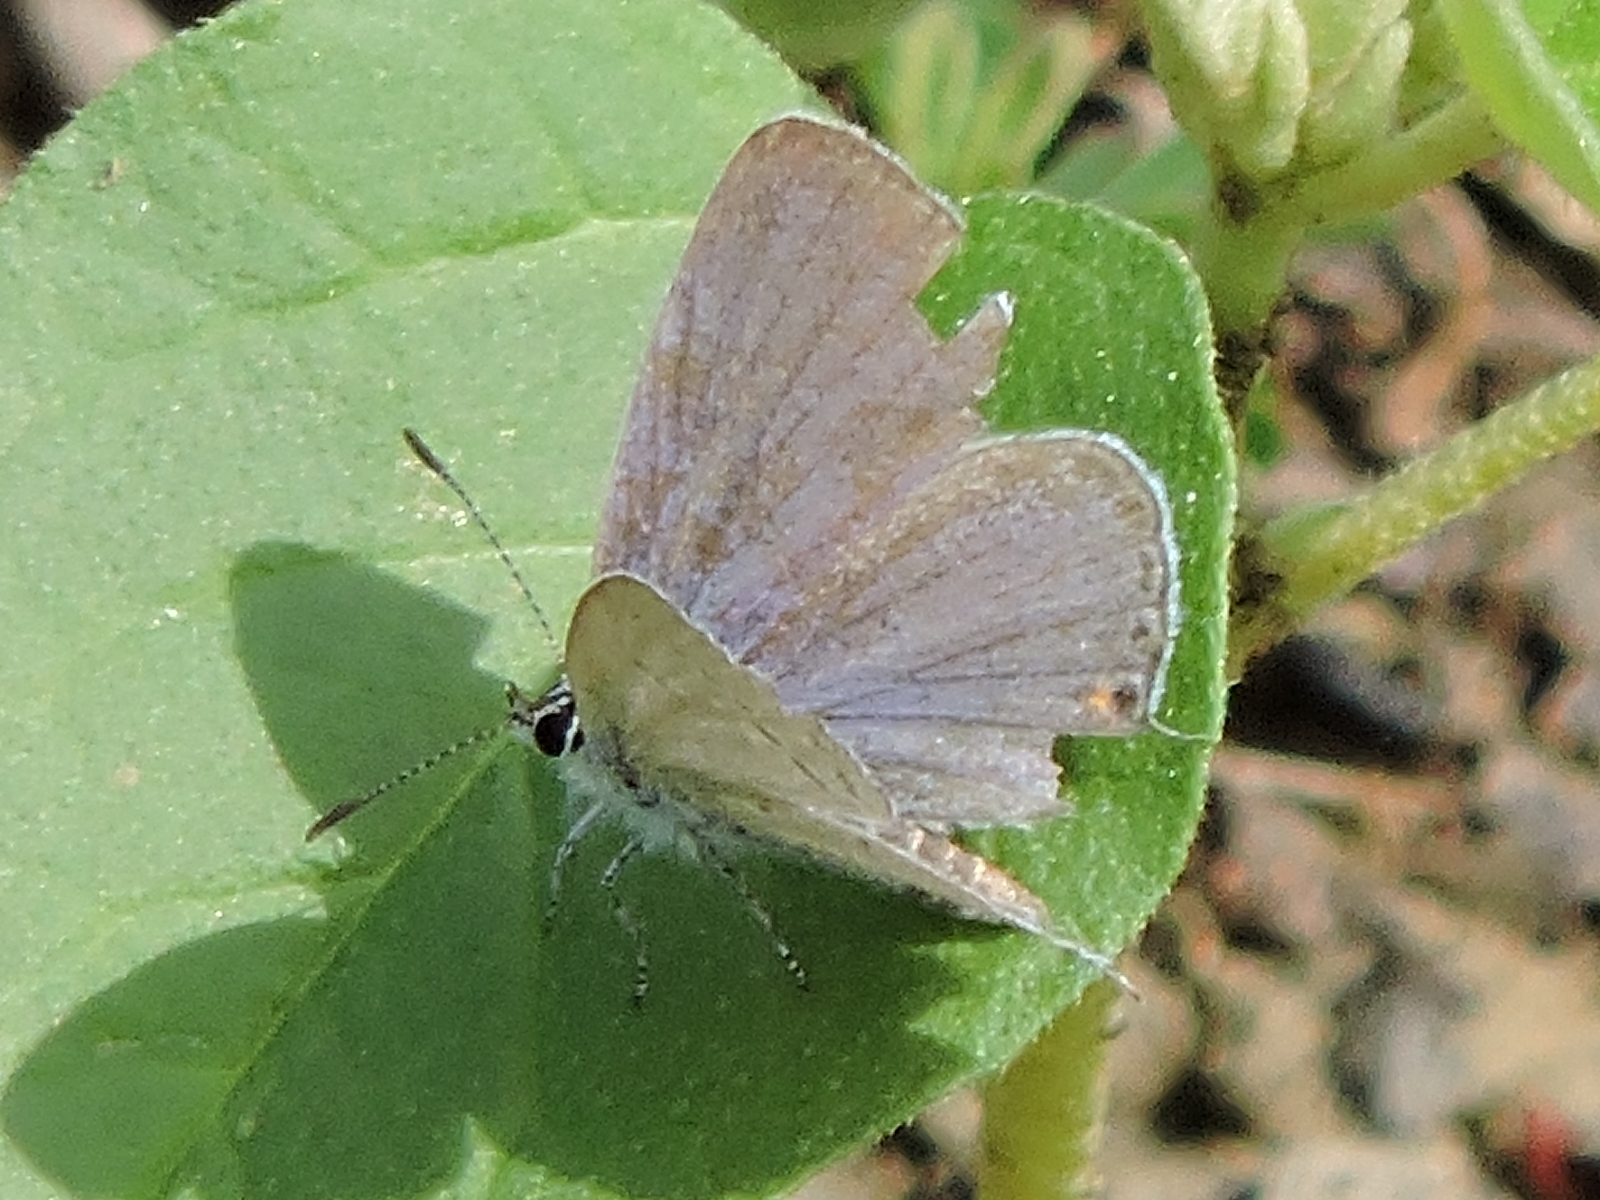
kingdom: Animalia
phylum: Arthropoda
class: Insecta
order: Lepidoptera
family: Lycaenidae
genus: Elkalyce
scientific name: Elkalyce comyntas
